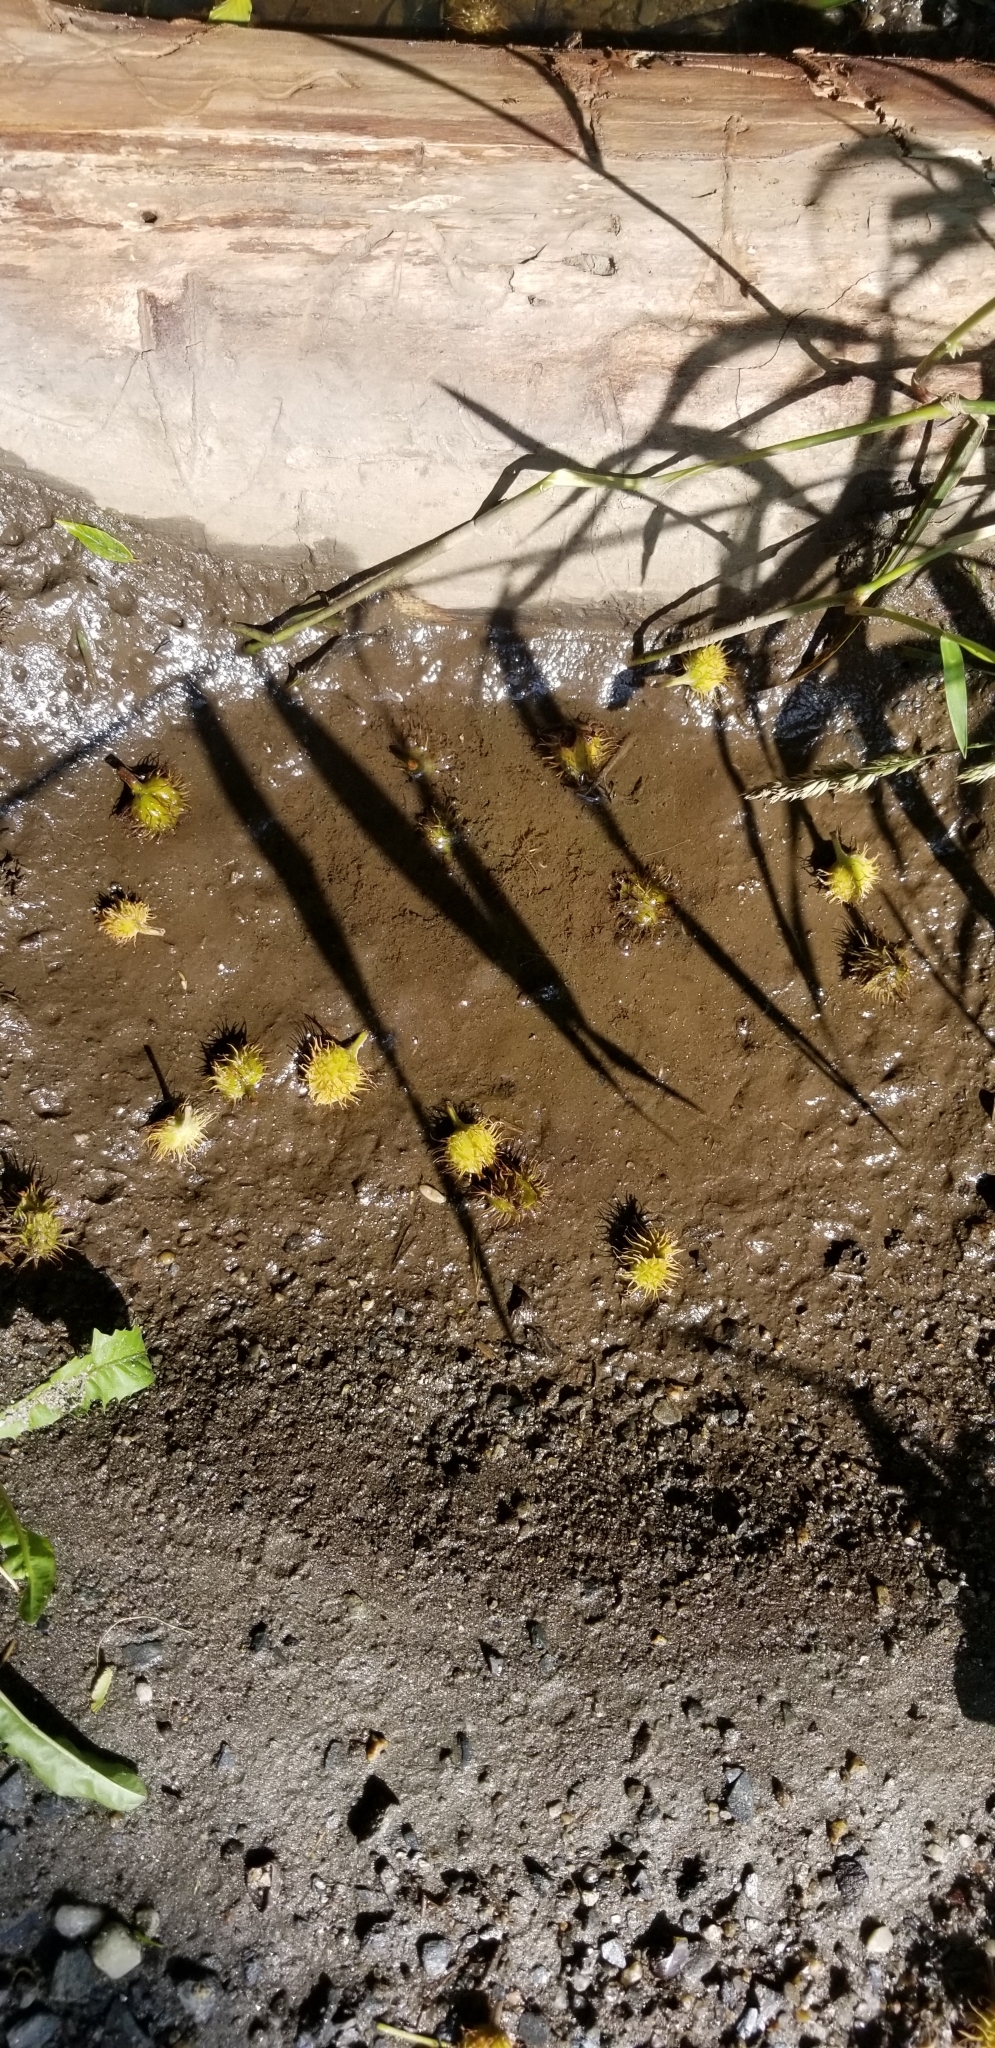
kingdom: Plantae
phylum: Tracheophyta
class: Magnoliopsida
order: Fagales
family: Fagaceae
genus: Fagus
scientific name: Fagus grandifolia
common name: American beech
